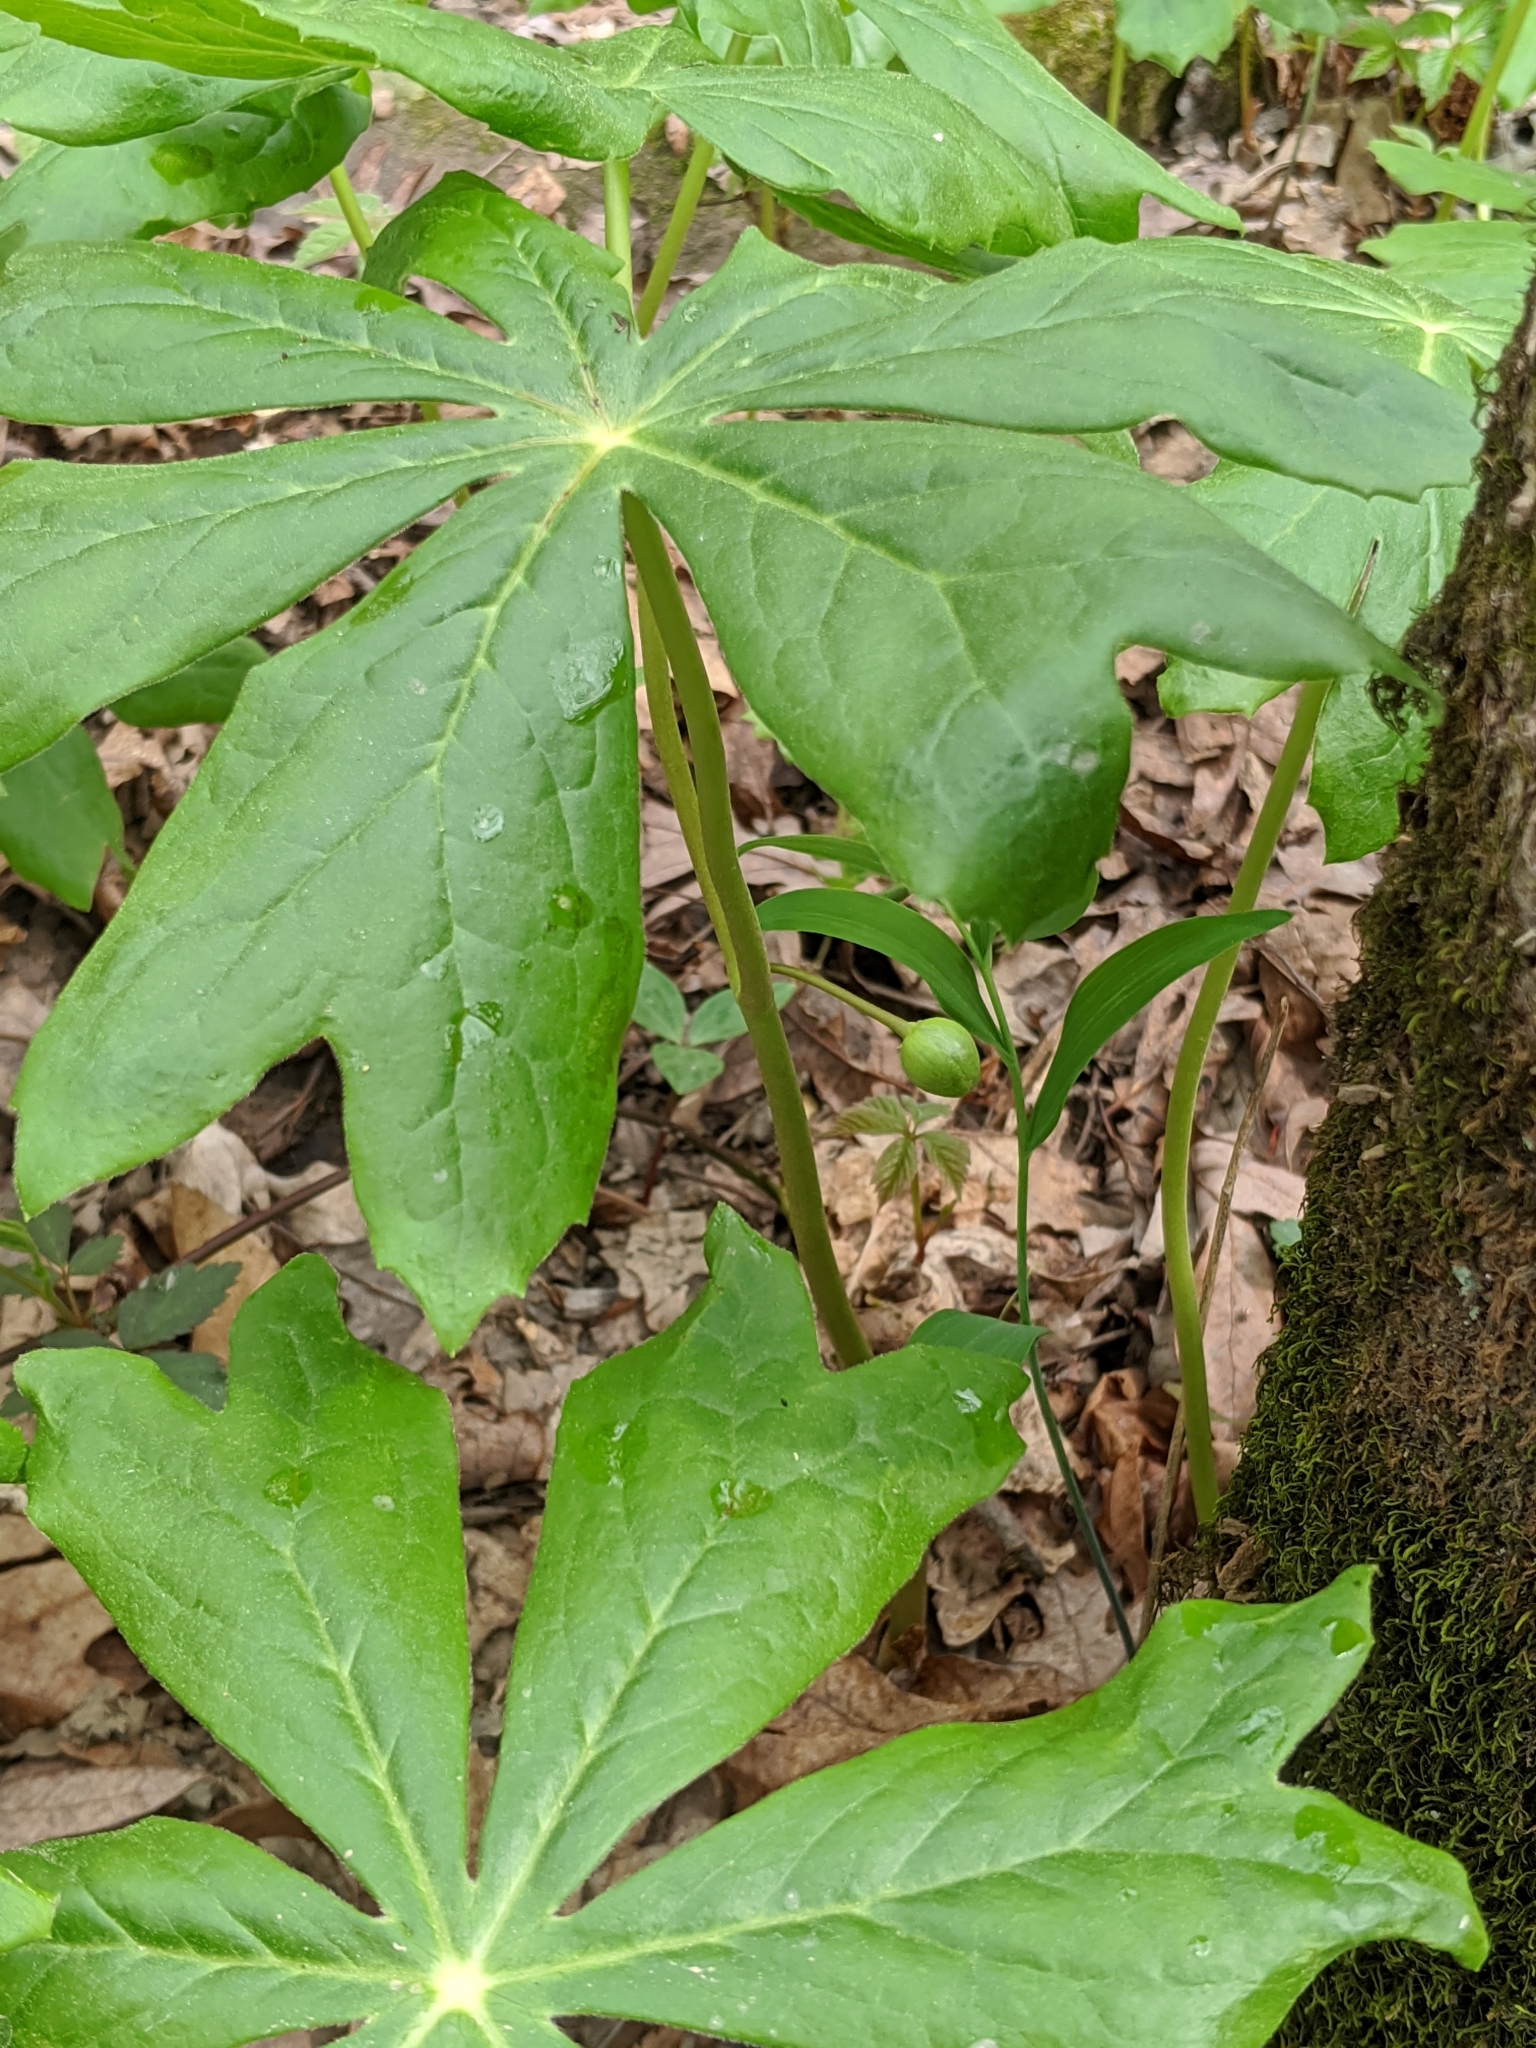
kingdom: Plantae
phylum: Tracheophyta
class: Magnoliopsida
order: Ranunculales
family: Berberidaceae
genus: Podophyllum
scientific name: Podophyllum peltatum
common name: Wild mandrake
